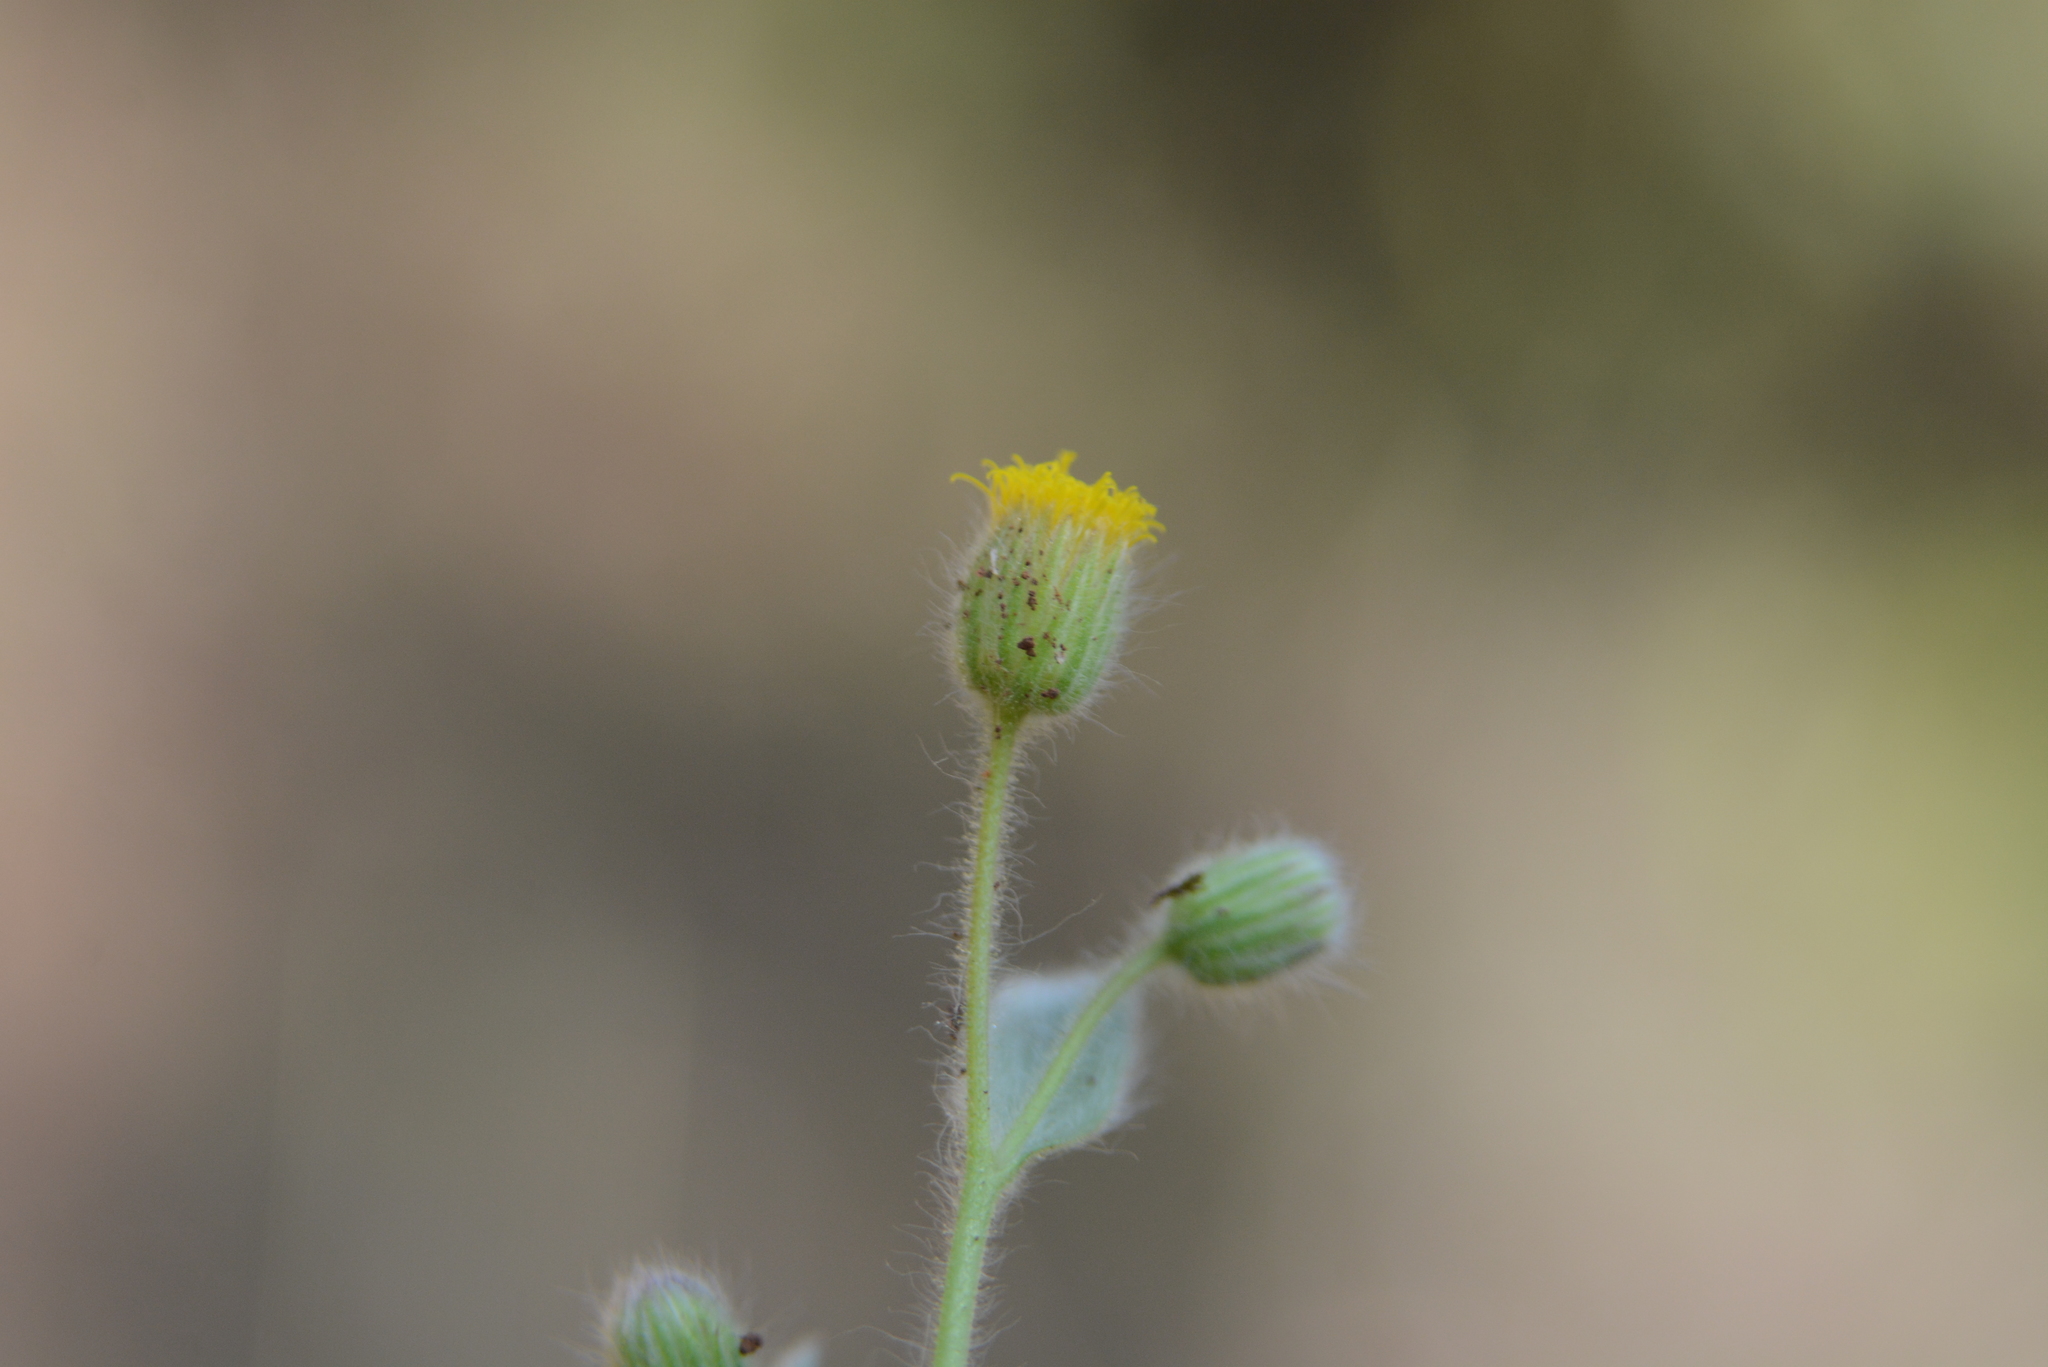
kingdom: Plantae
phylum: Tracheophyta
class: Magnoliopsida
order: Asterales
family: Asteraceae
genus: Blumea
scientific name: Blumea oxyodonta
